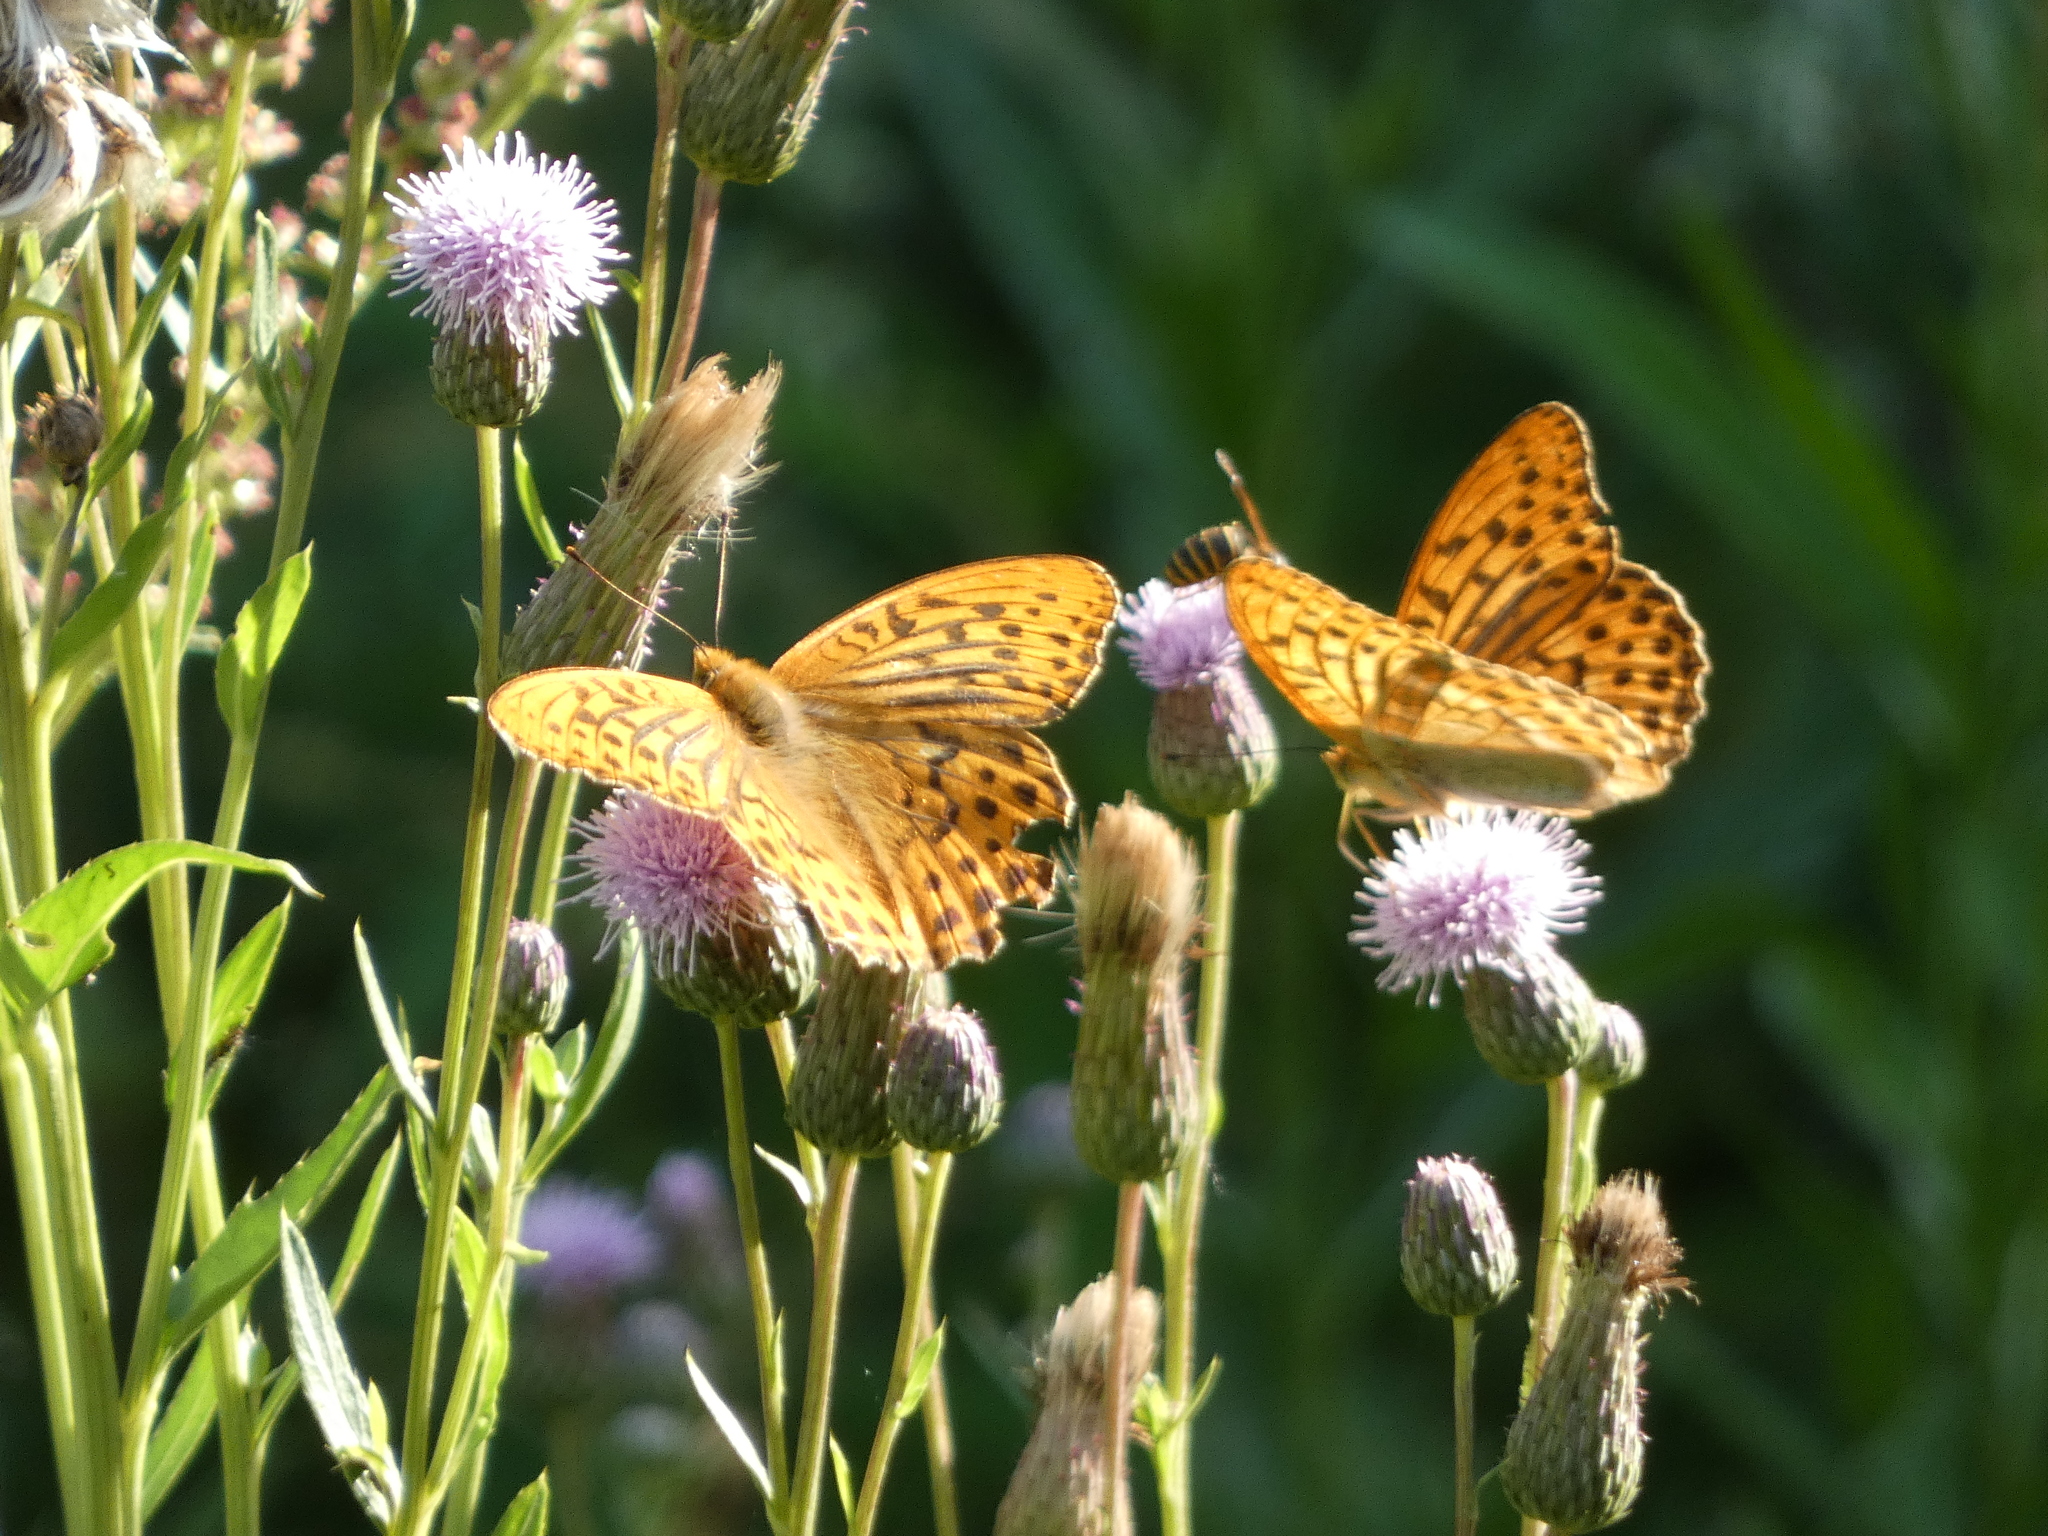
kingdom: Animalia
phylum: Arthropoda
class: Insecta
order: Lepidoptera
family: Nymphalidae
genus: Argynnis
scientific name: Argynnis paphia
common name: Silver-washed fritillary
